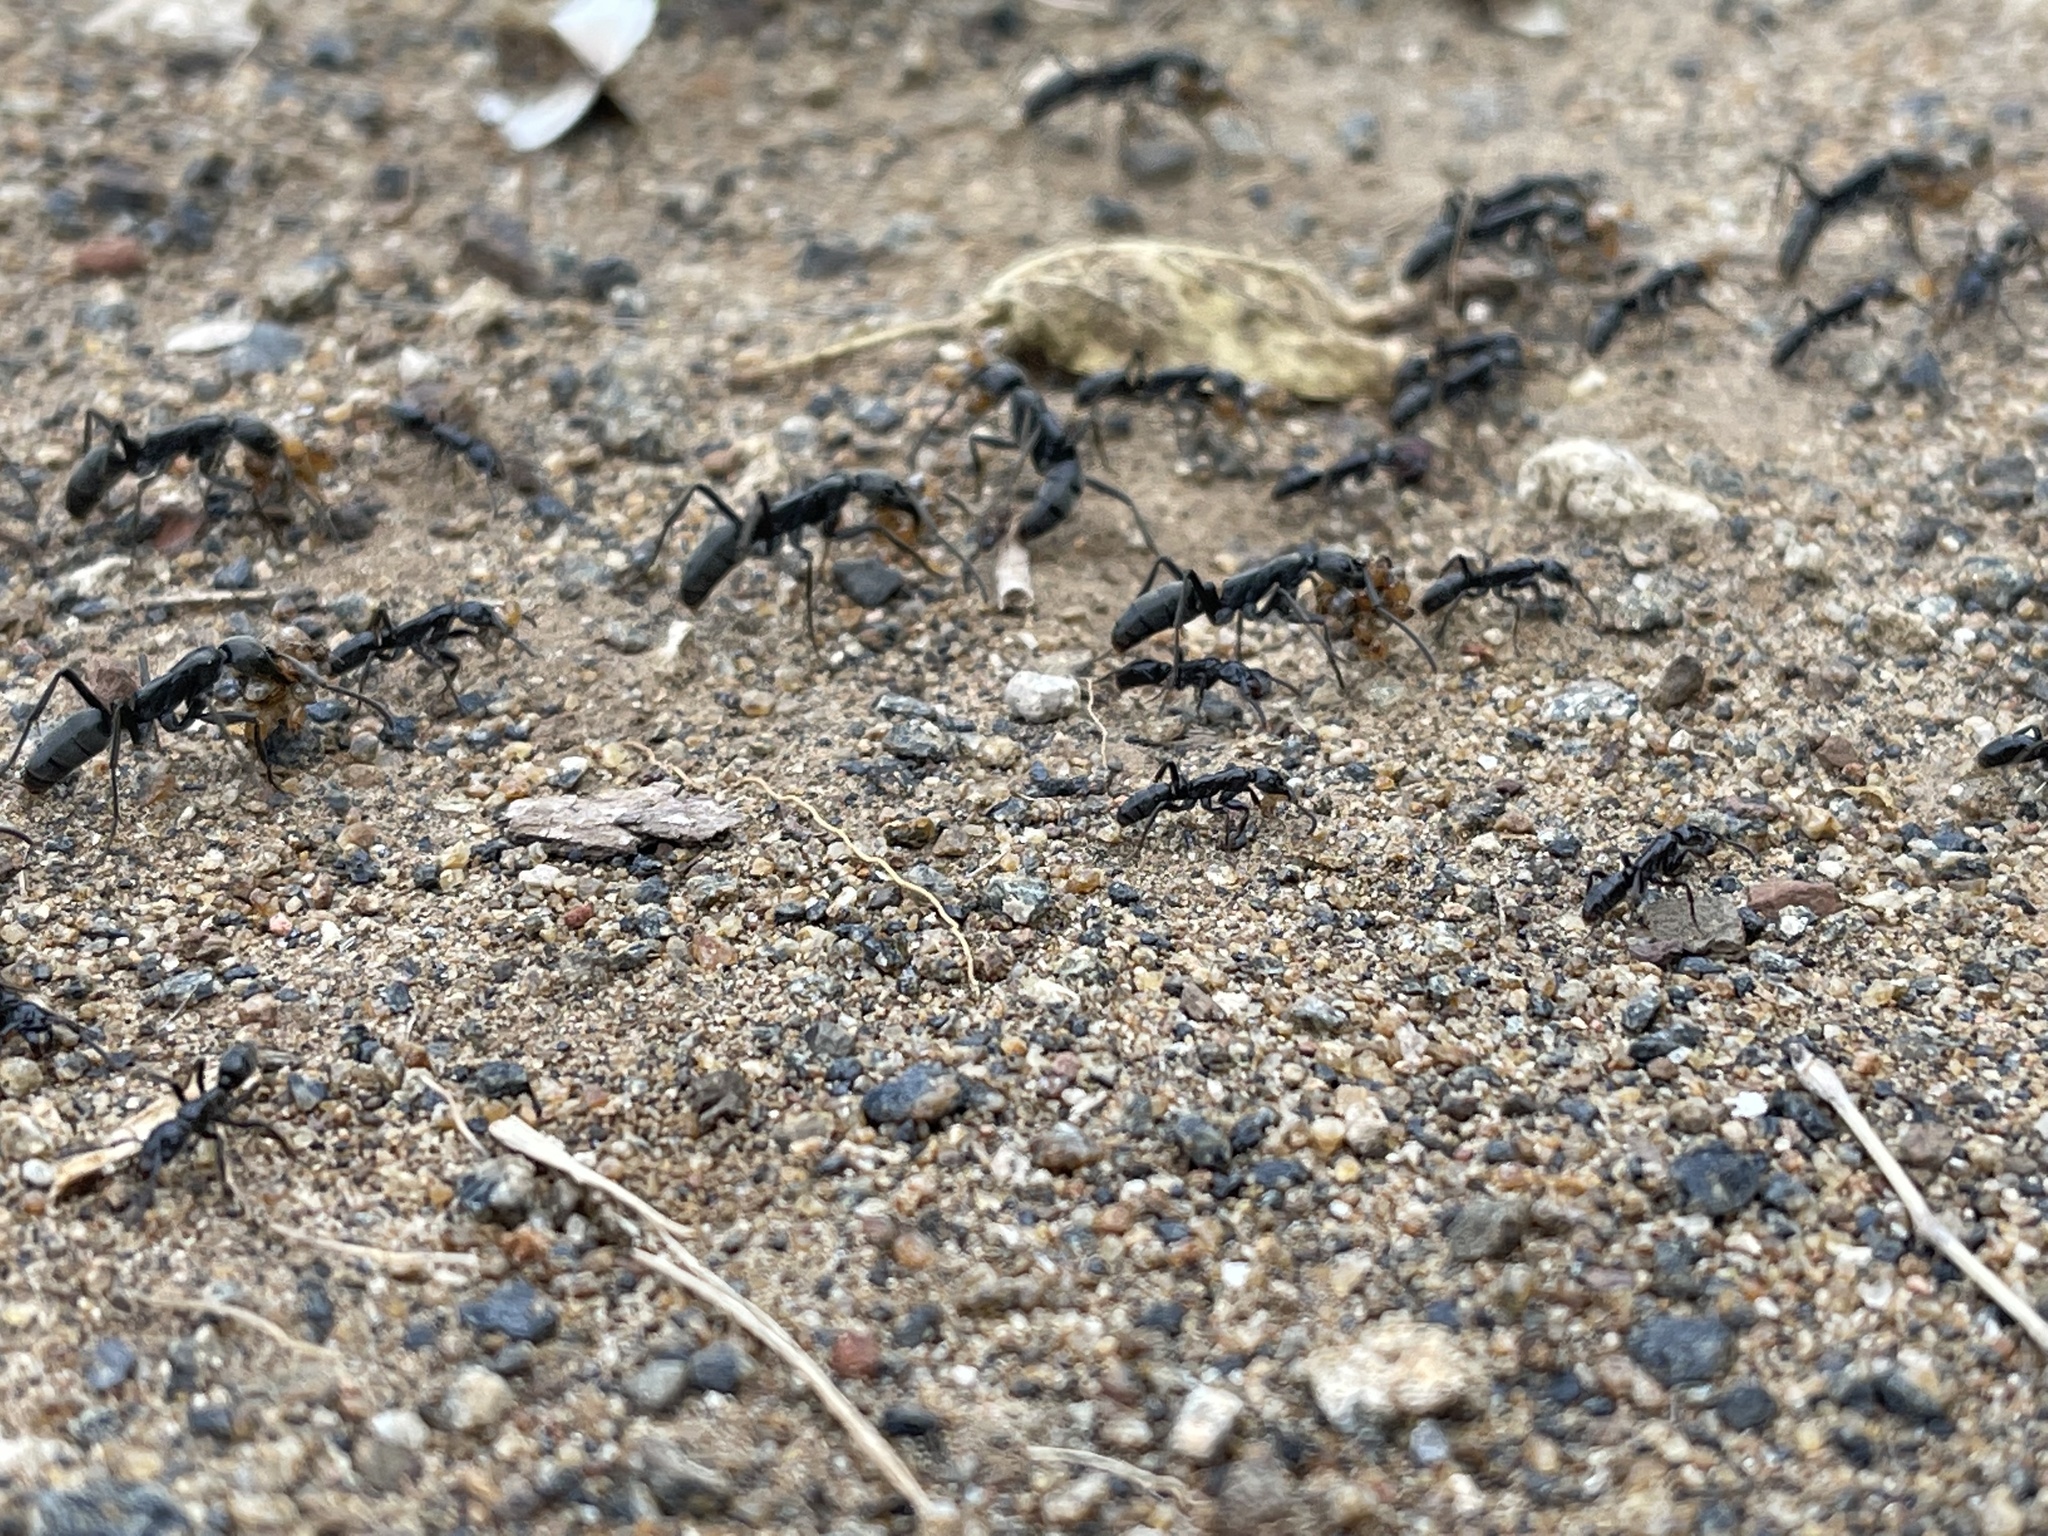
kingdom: Animalia
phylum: Arthropoda
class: Insecta
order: Hymenoptera
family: Formicidae
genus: Megaponera
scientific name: Megaponera analis
